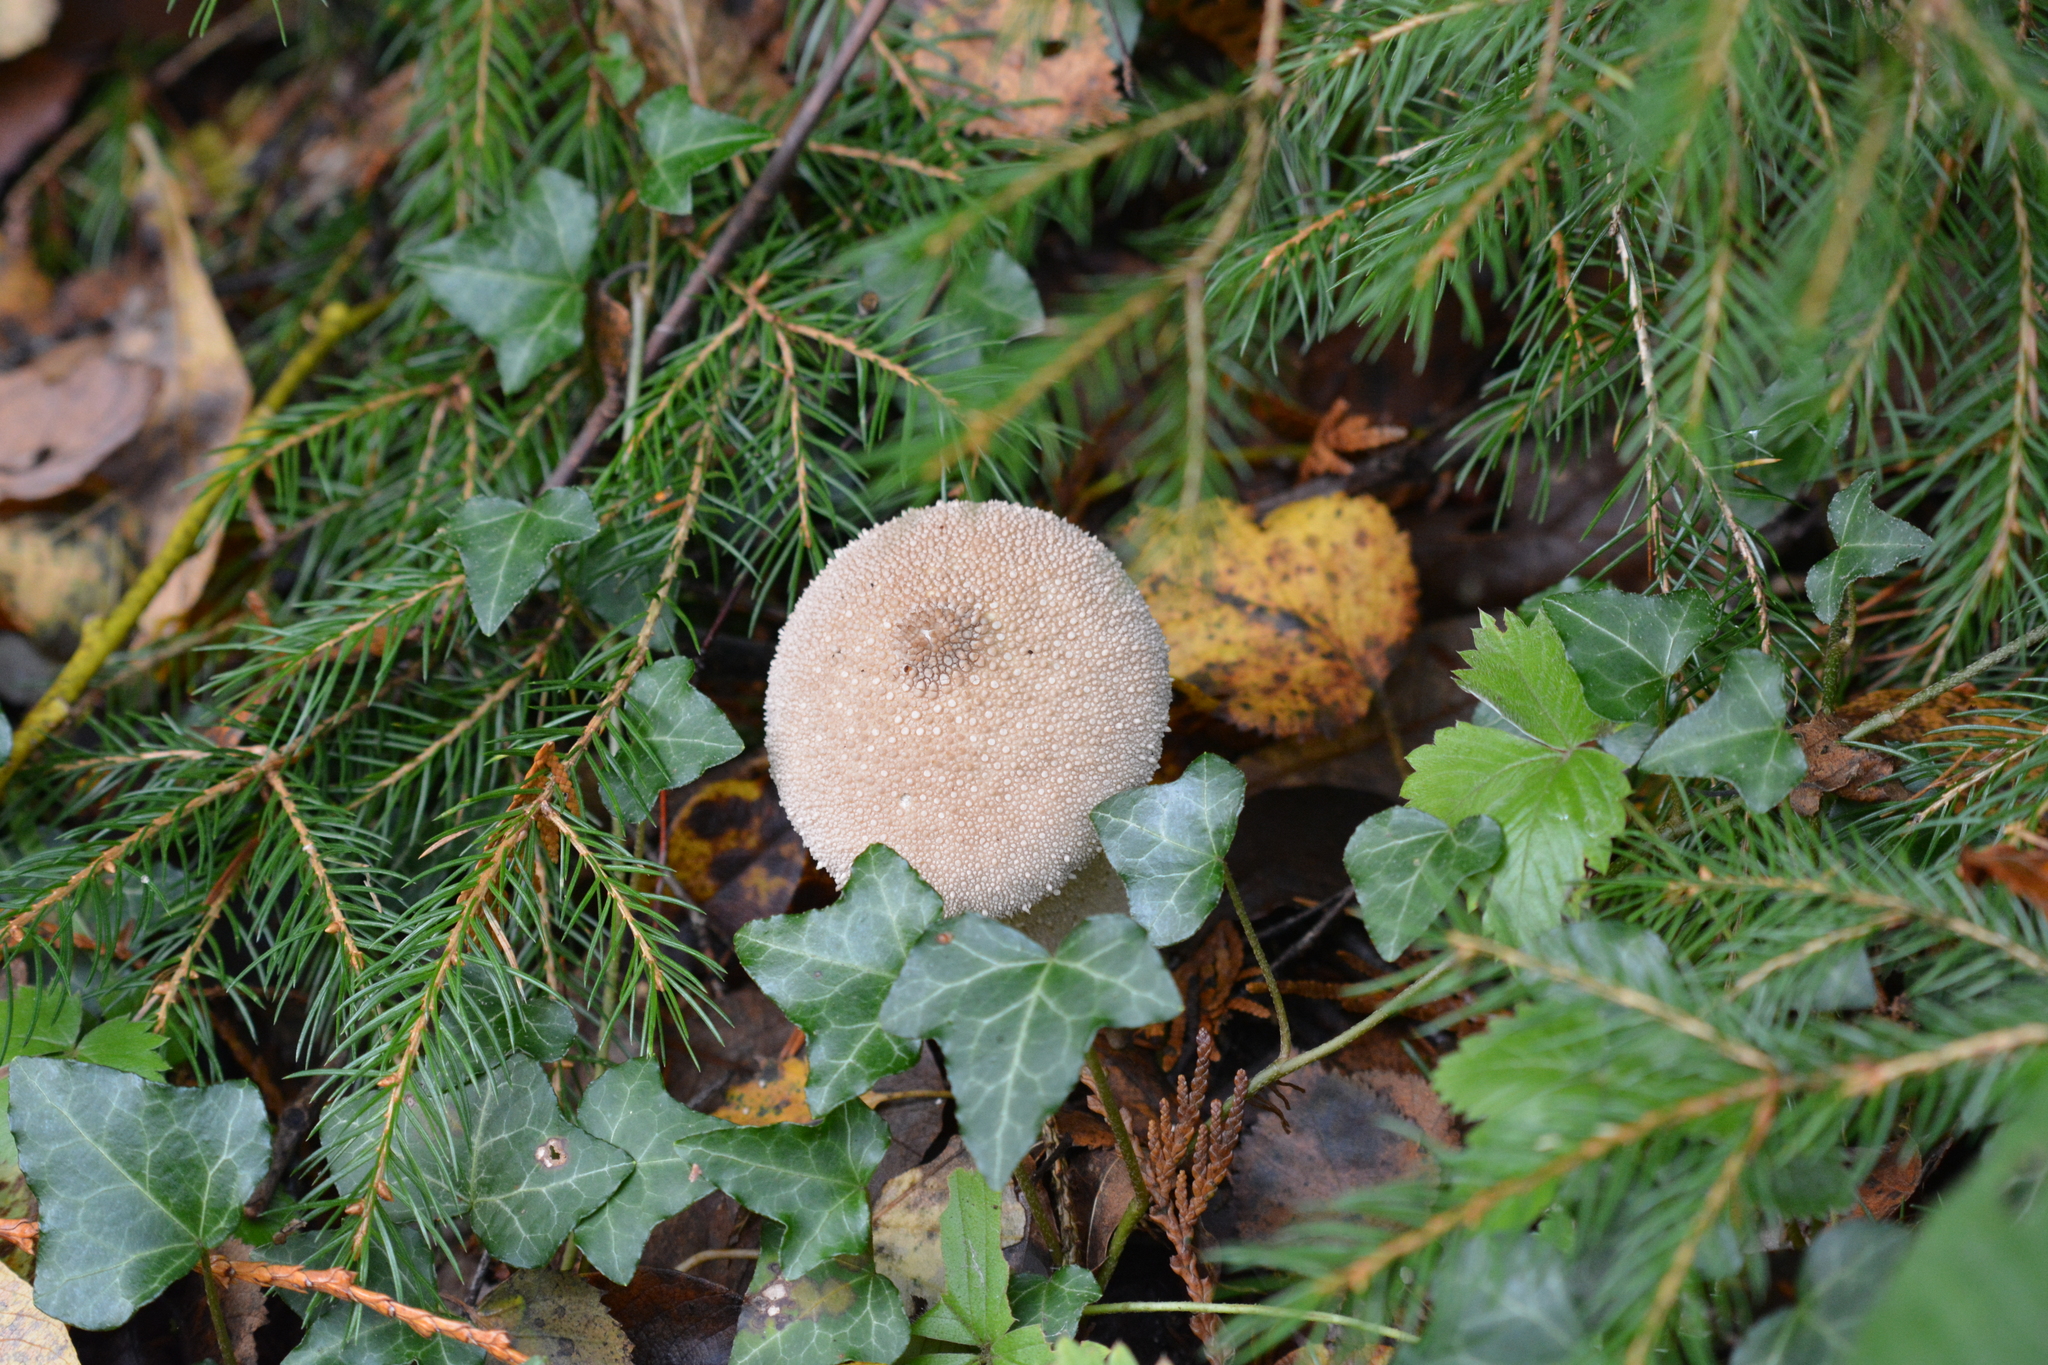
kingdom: Fungi
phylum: Basidiomycota
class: Agaricomycetes
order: Agaricales
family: Lycoperdaceae
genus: Lycoperdon
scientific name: Lycoperdon perlatum
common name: Common puffball
